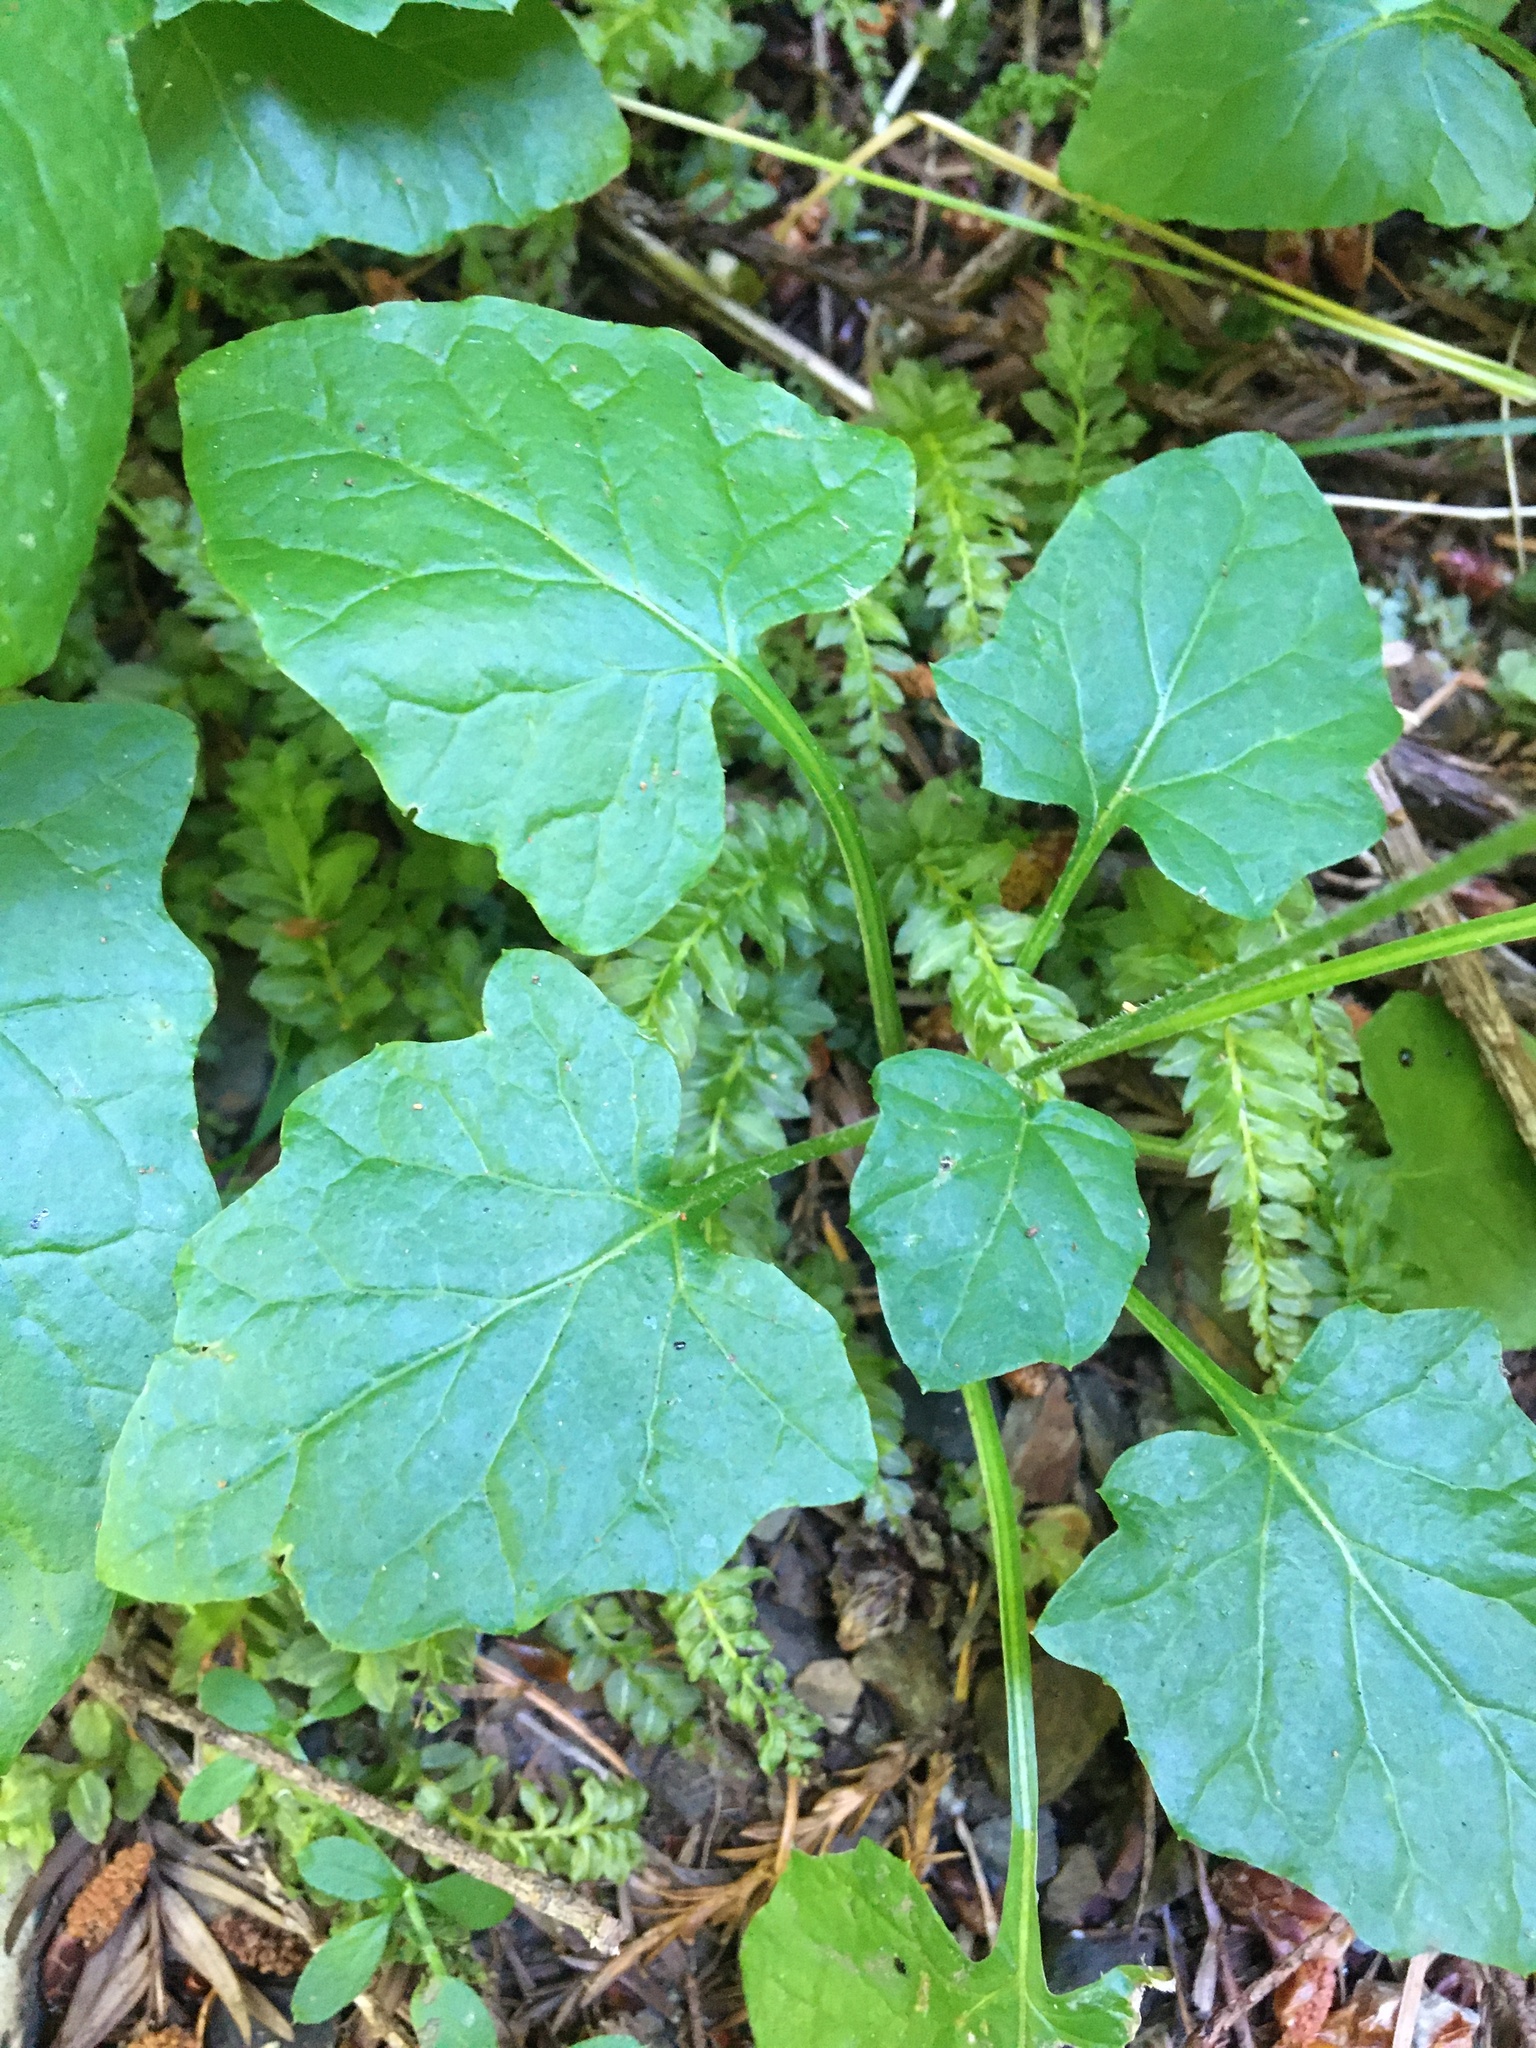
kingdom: Plantae
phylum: Tracheophyta
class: Magnoliopsida
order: Asterales
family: Asteraceae
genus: Adenocaulon
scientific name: Adenocaulon bicolor
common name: Trailplant
